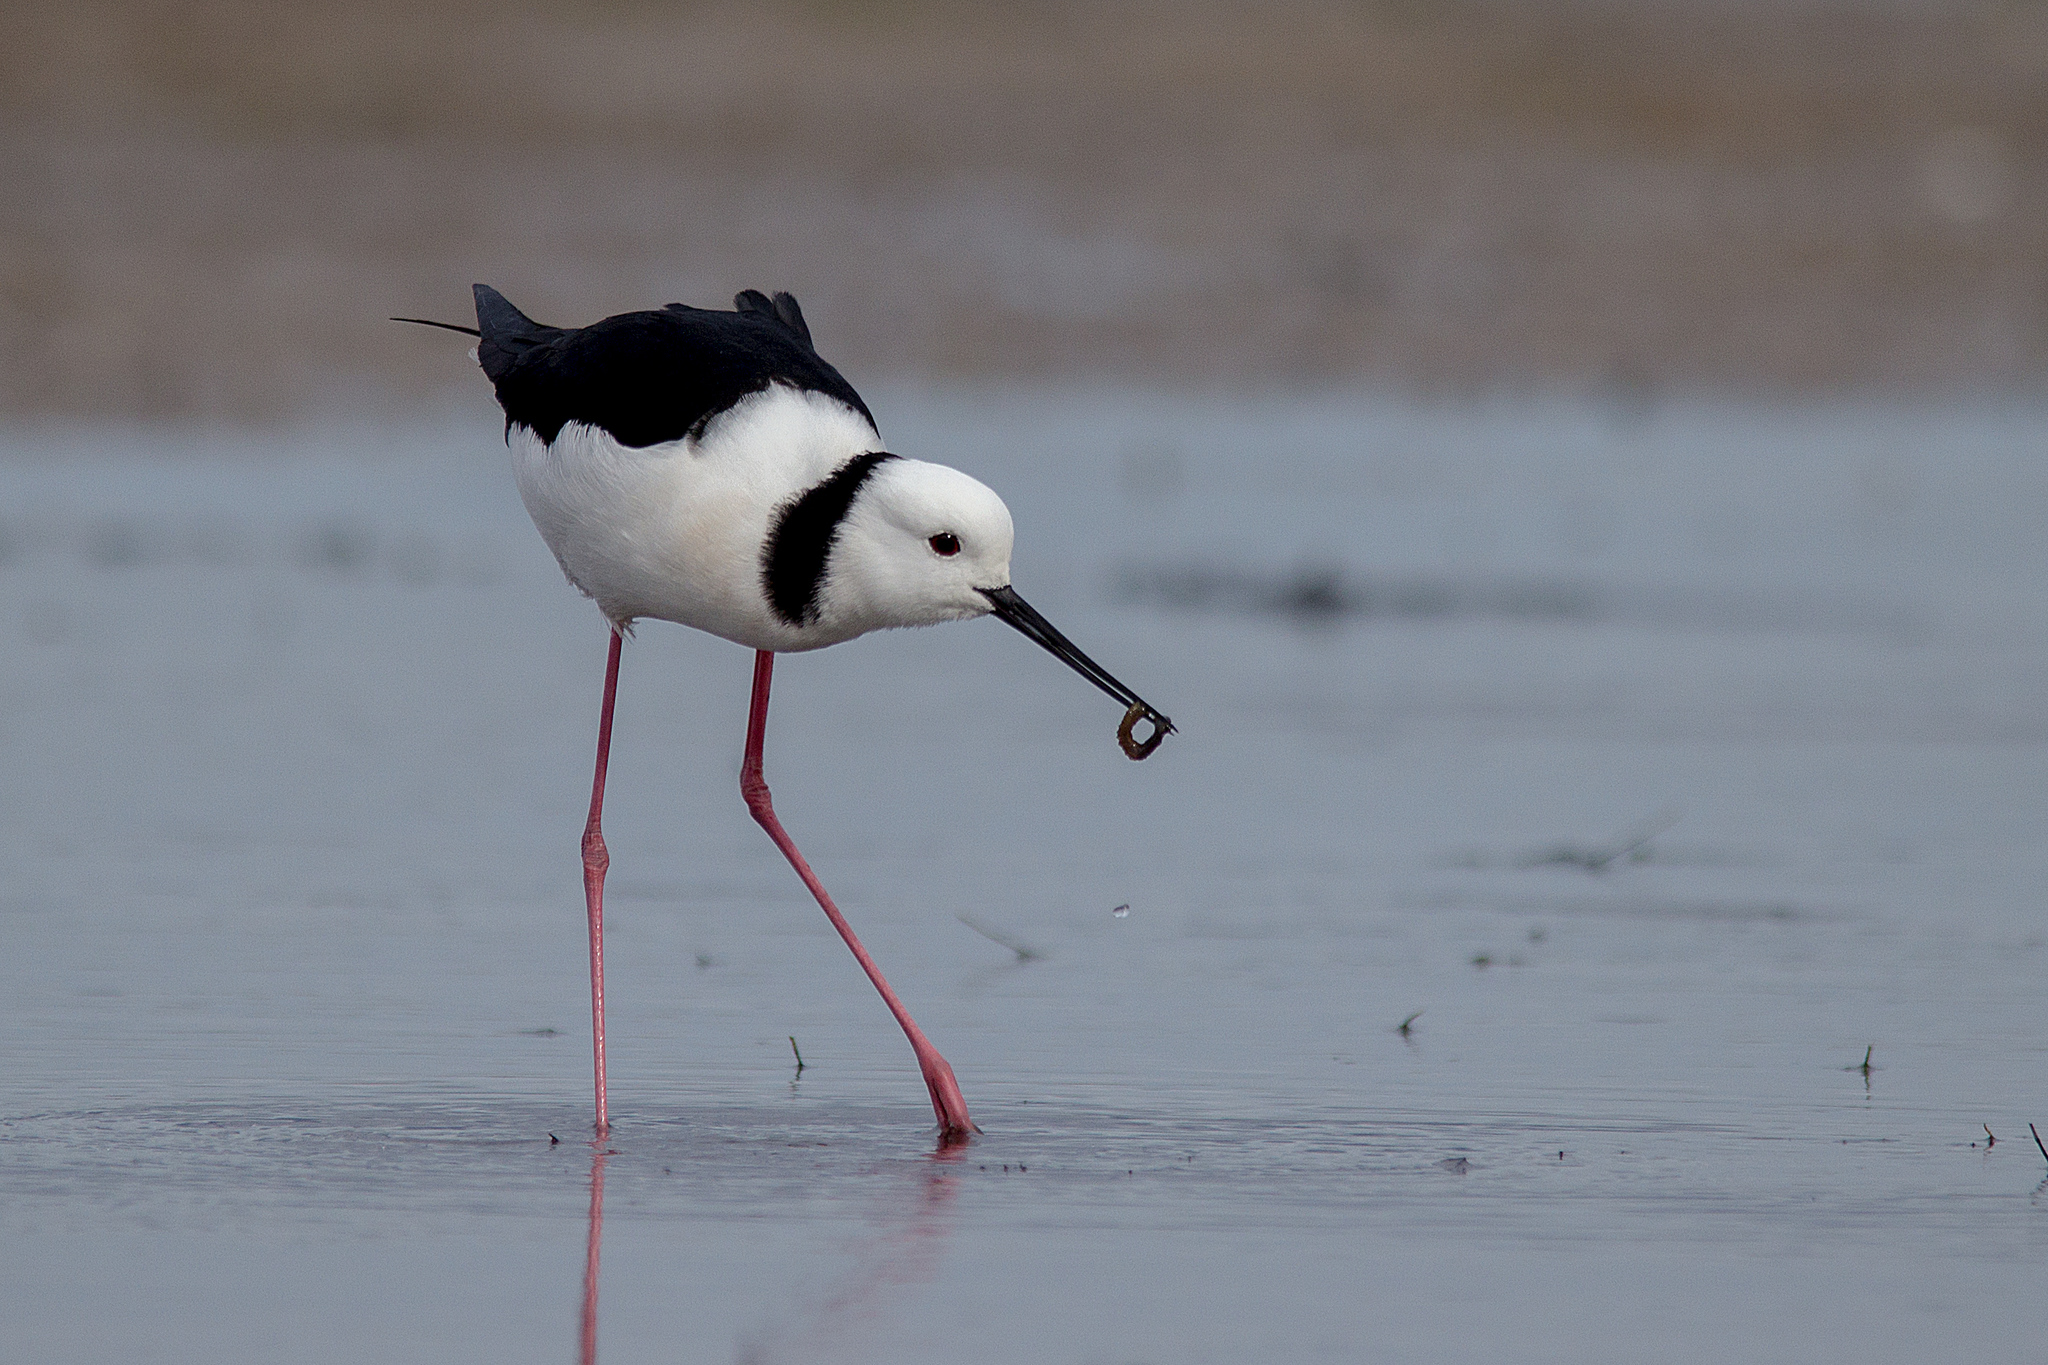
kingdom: Animalia
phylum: Chordata
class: Aves
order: Charadriiformes
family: Recurvirostridae
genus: Himantopus
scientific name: Himantopus leucocephalus
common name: White-headed stilt
